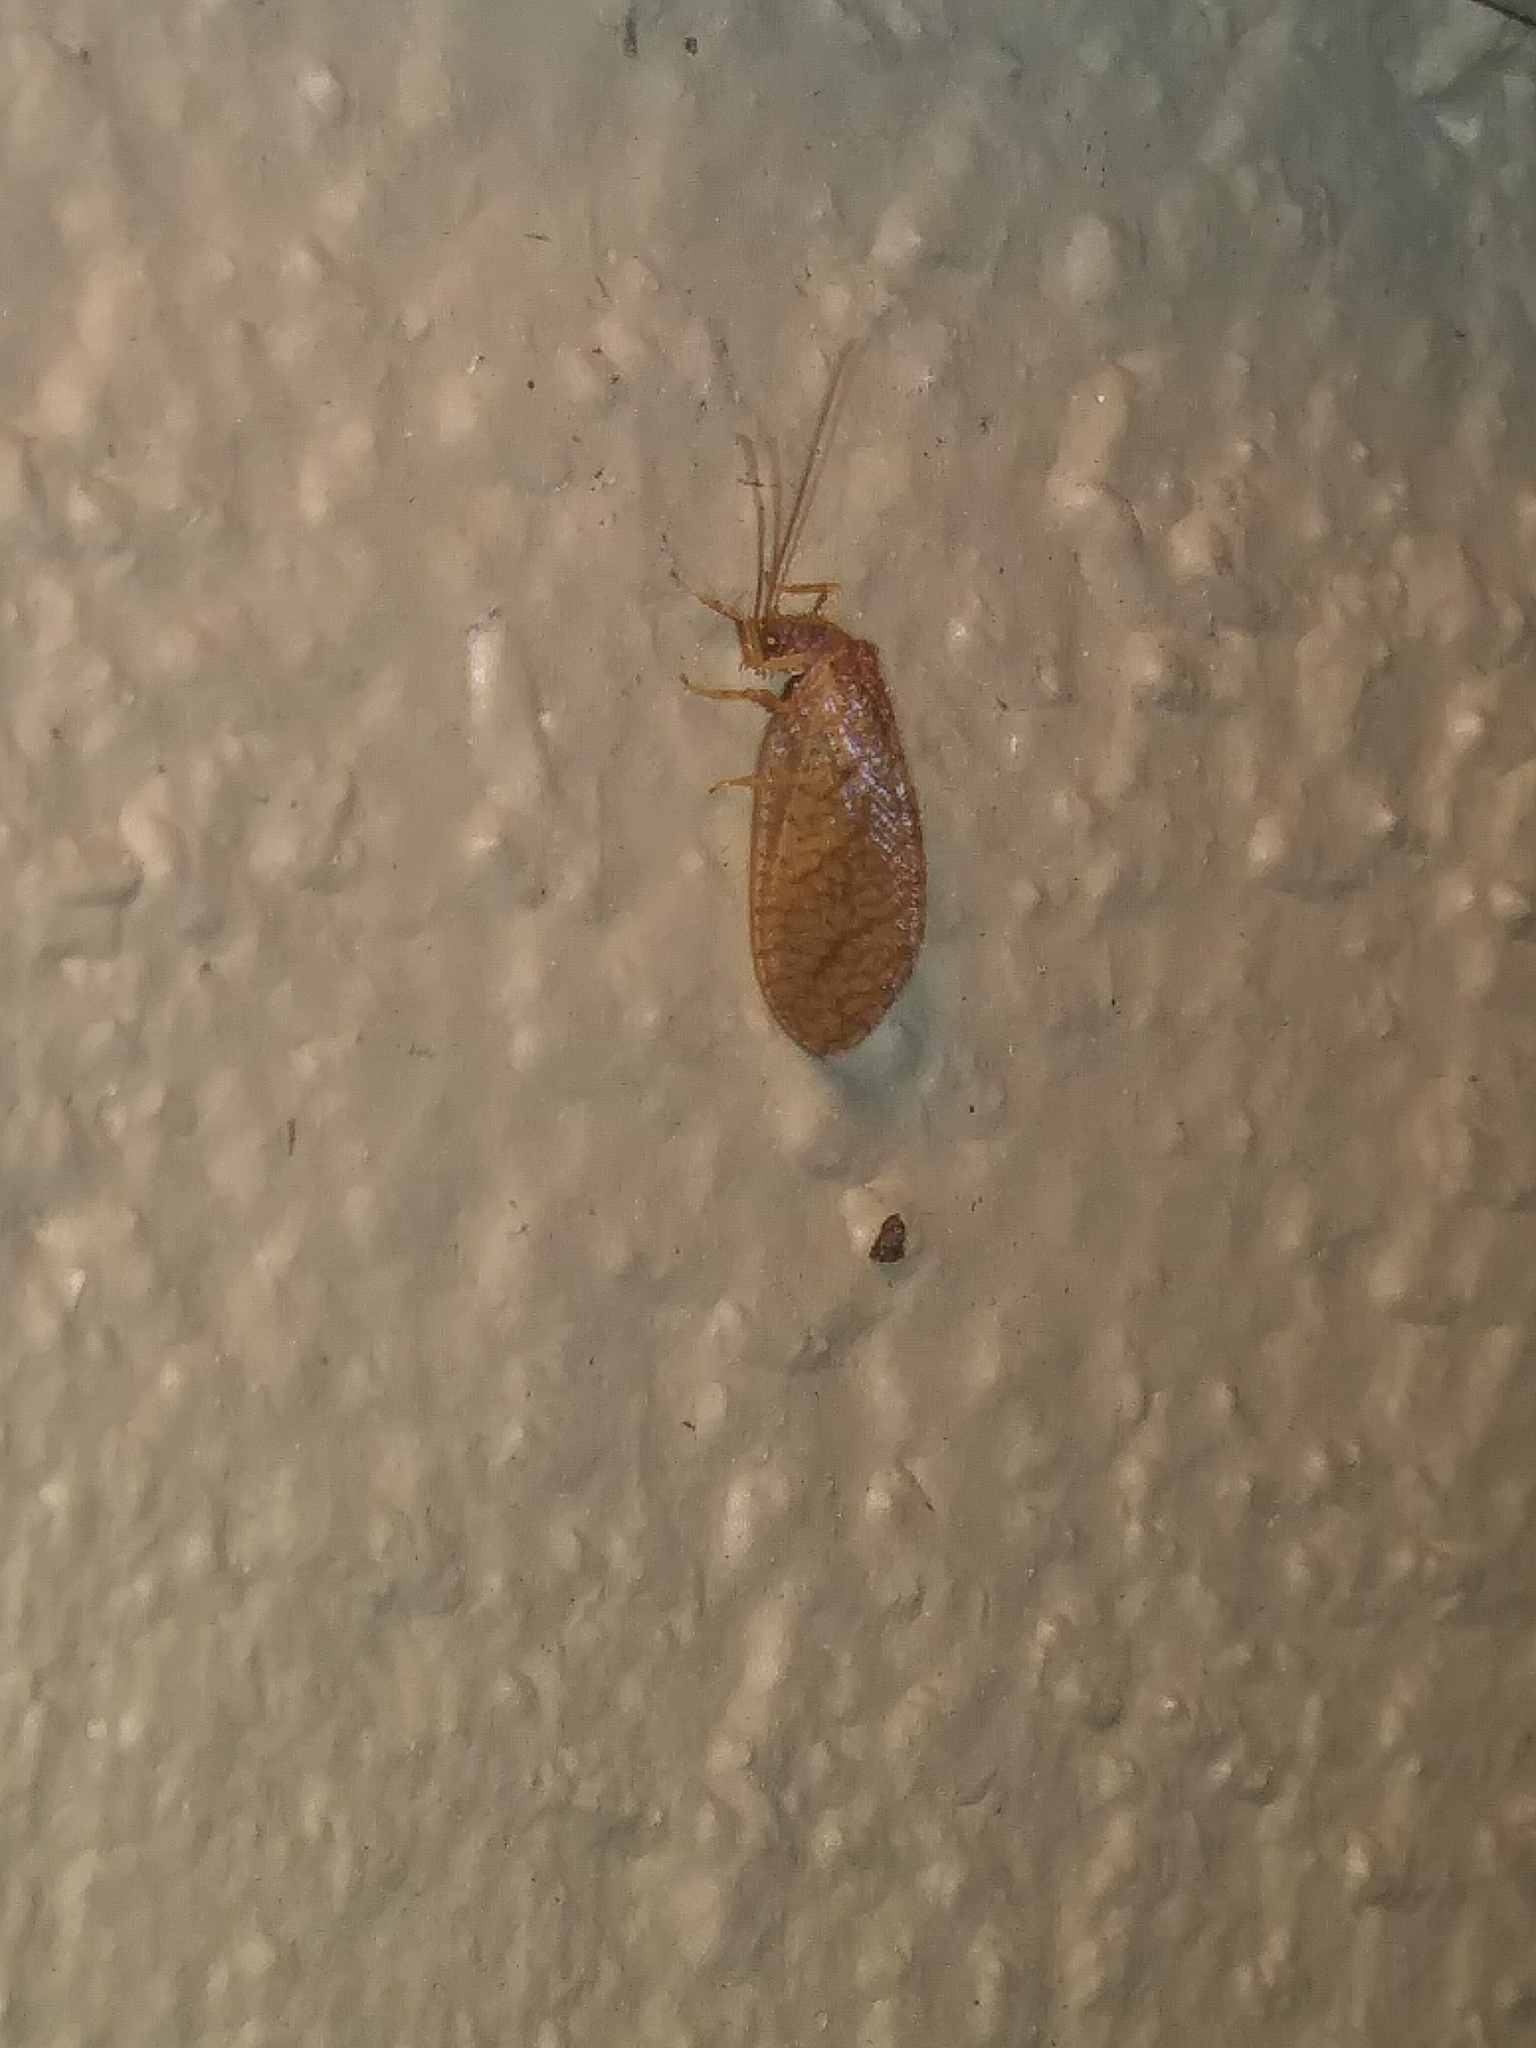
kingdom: Animalia
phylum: Arthropoda
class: Insecta
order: Neuroptera
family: Hemerobiidae
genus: Micromus
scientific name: Micromus posticus
